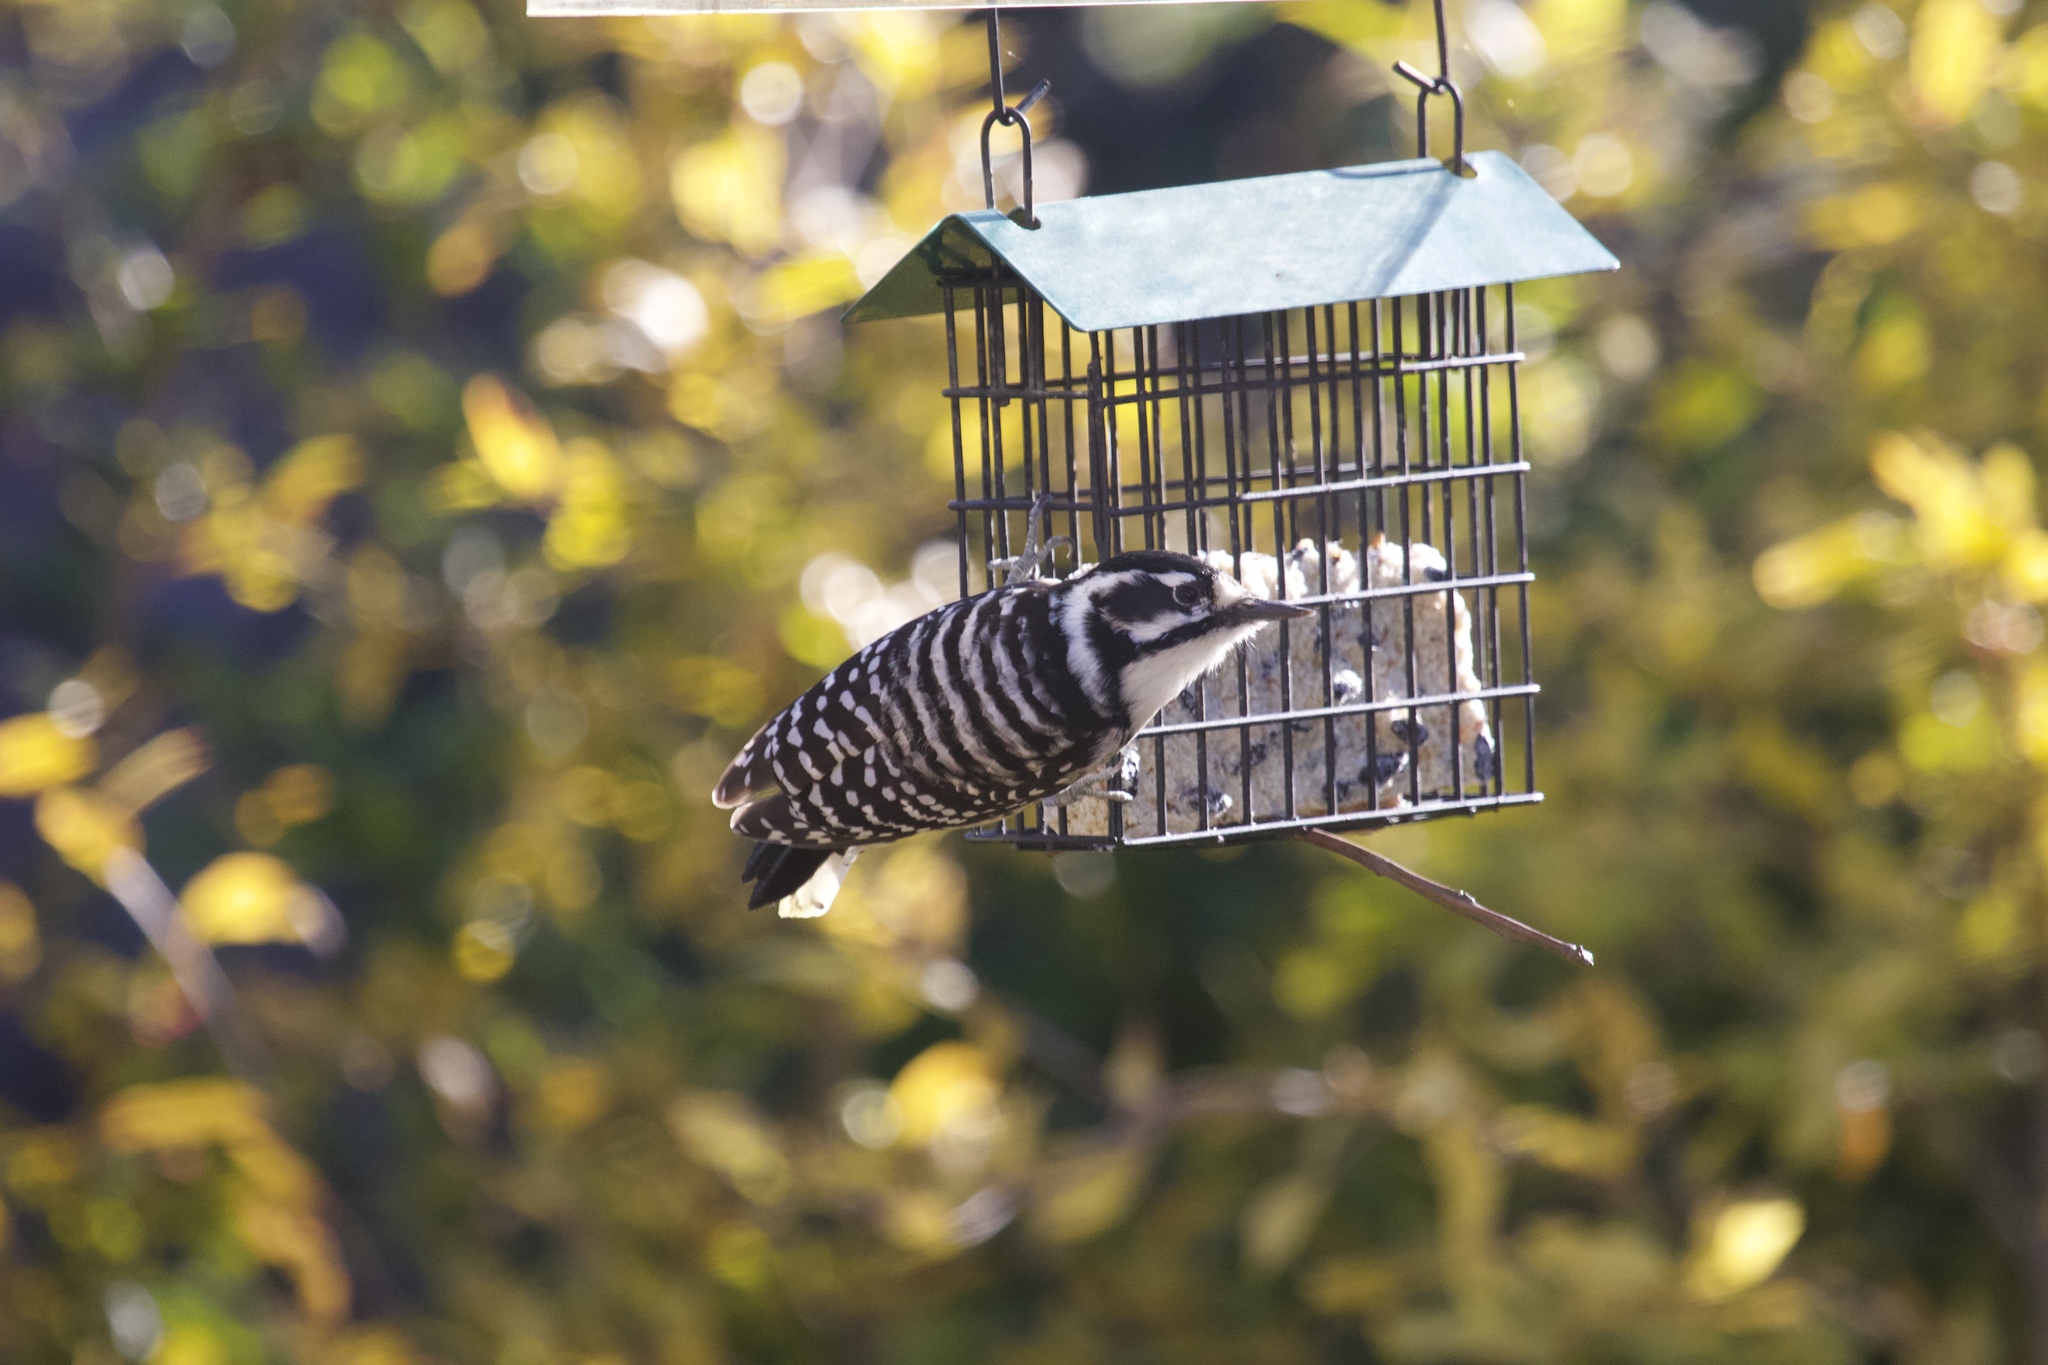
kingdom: Animalia
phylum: Chordata
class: Aves
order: Piciformes
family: Picidae
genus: Dryobates
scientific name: Dryobates nuttallii
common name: Nuttall's woodpecker
